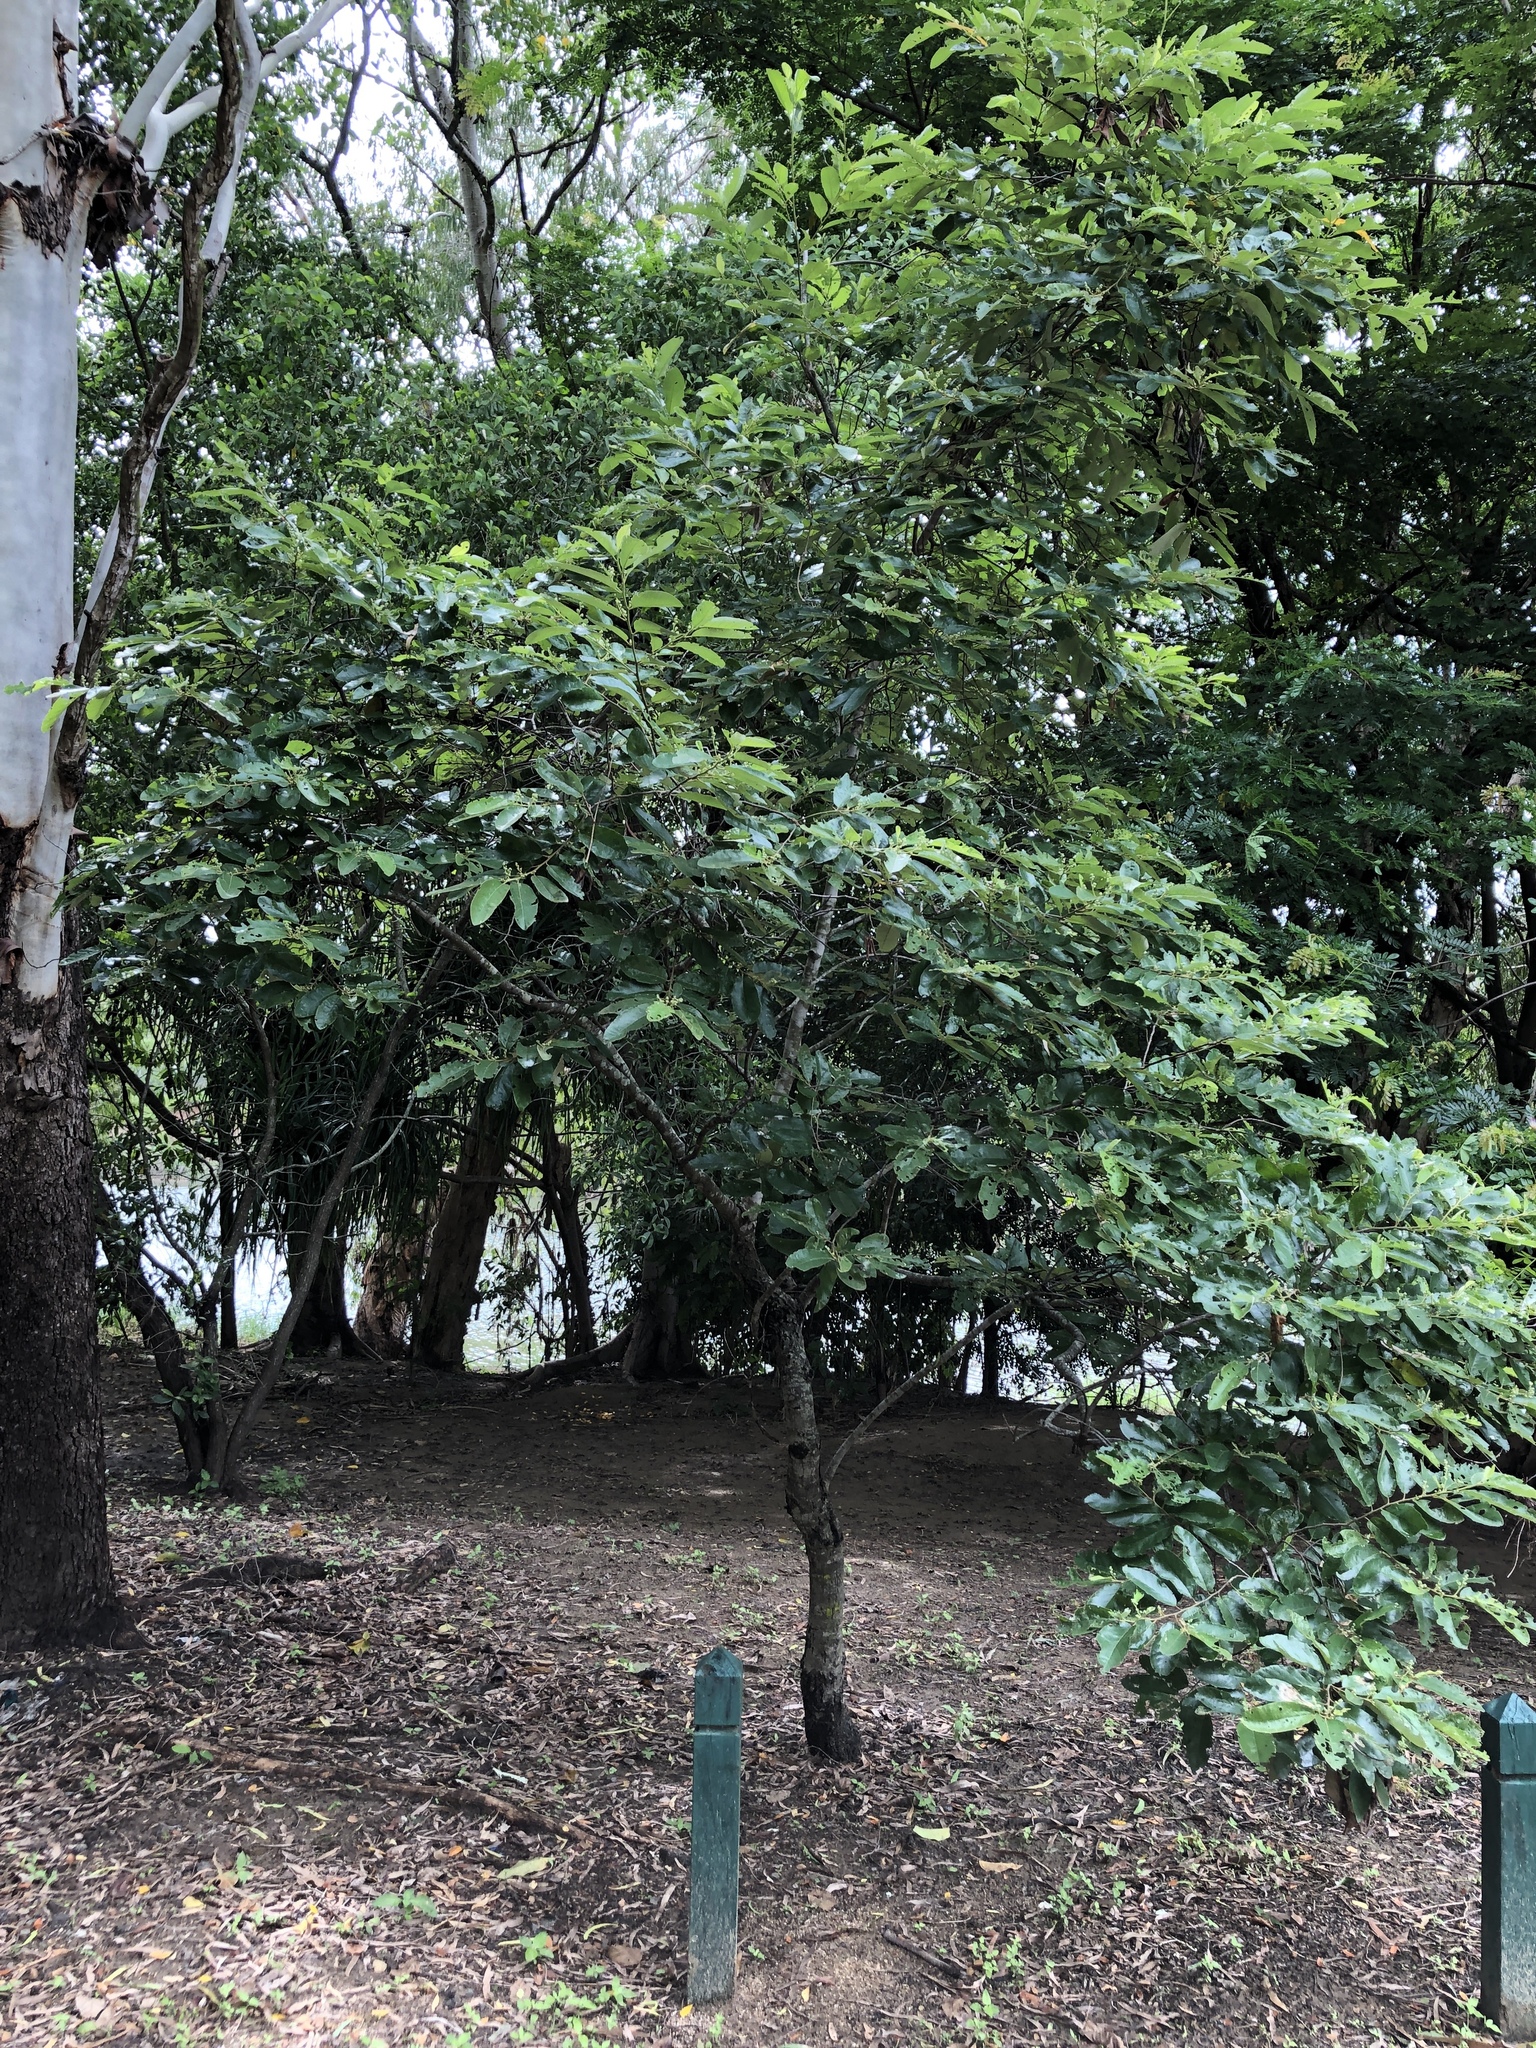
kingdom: Plantae
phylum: Tracheophyta
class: Magnoliopsida
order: Rosales
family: Rhamnaceae
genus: Alphitonia
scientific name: Alphitonia excelsa
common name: Red ash
